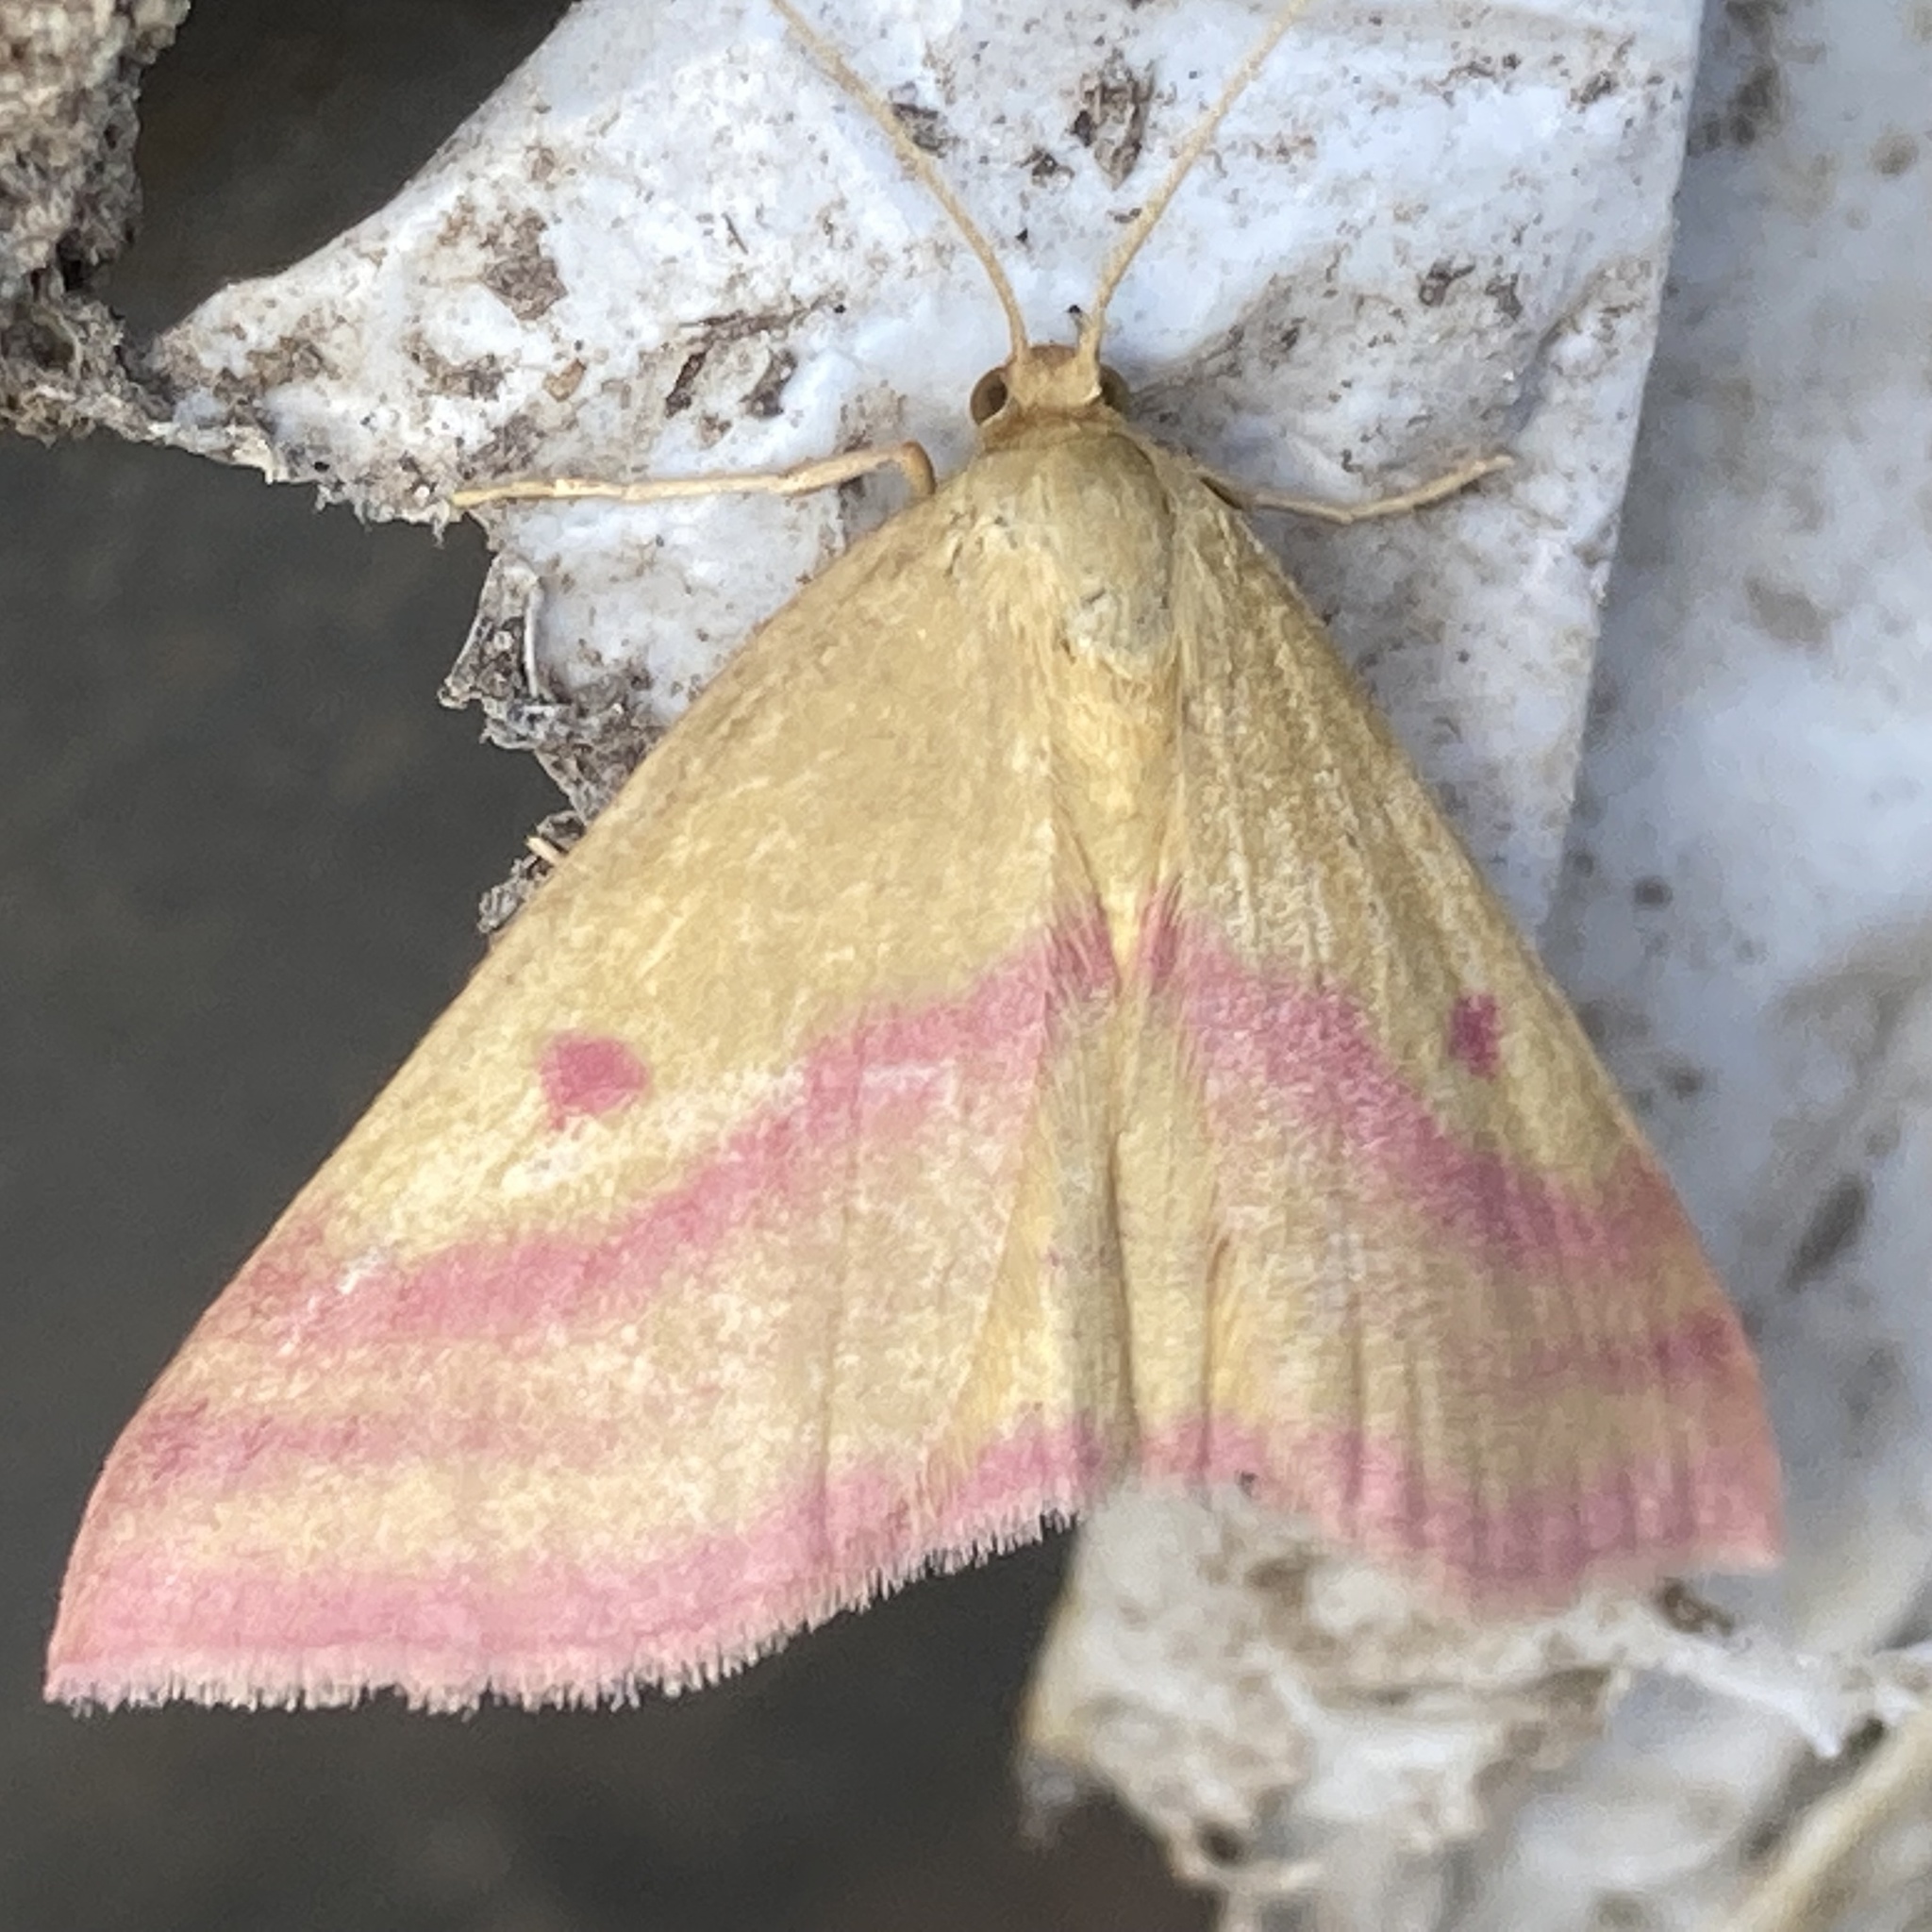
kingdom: Animalia
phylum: Arthropoda
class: Insecta
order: Lepidoptera
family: Geometridae
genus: Haematopis
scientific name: Haematopis grataria
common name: Chickweed geometer
